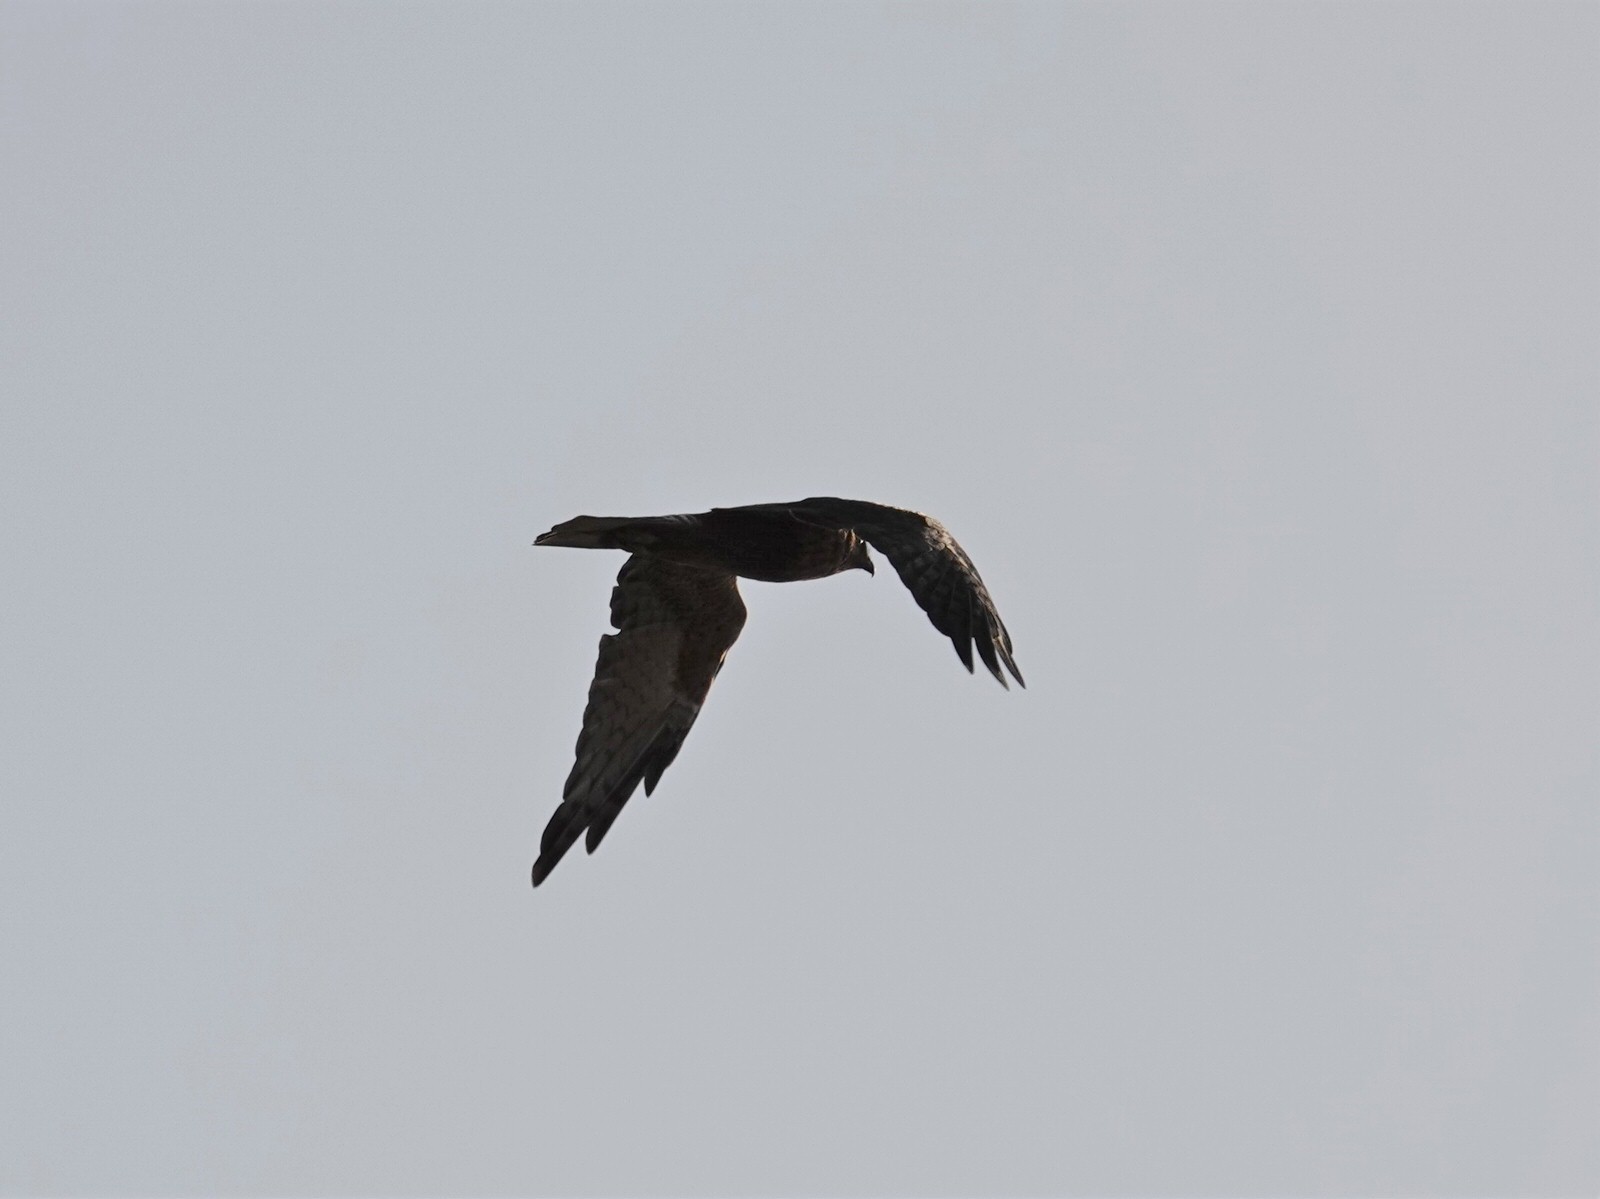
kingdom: Animalia
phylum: Chordata
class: Aves
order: Accipitriformes
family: Accipitridae
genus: Circus
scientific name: Circus approximans
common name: Swamp harrier
